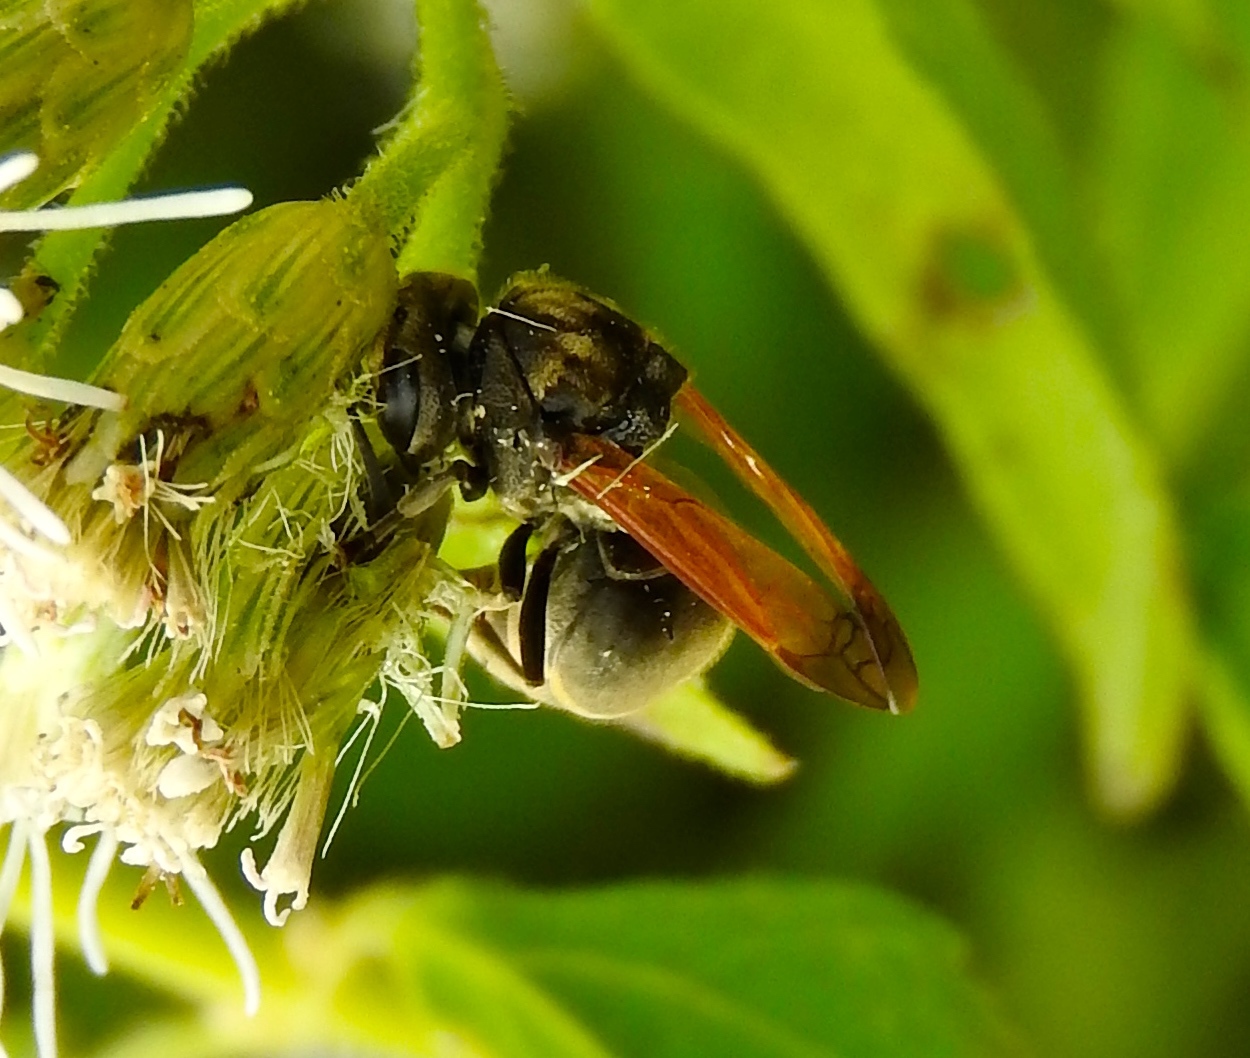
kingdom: Animalia
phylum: Arthropoda
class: Insecta
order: Hymenoptera
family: Vespidae
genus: Brachygastra
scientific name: Brachygastra mellifica
